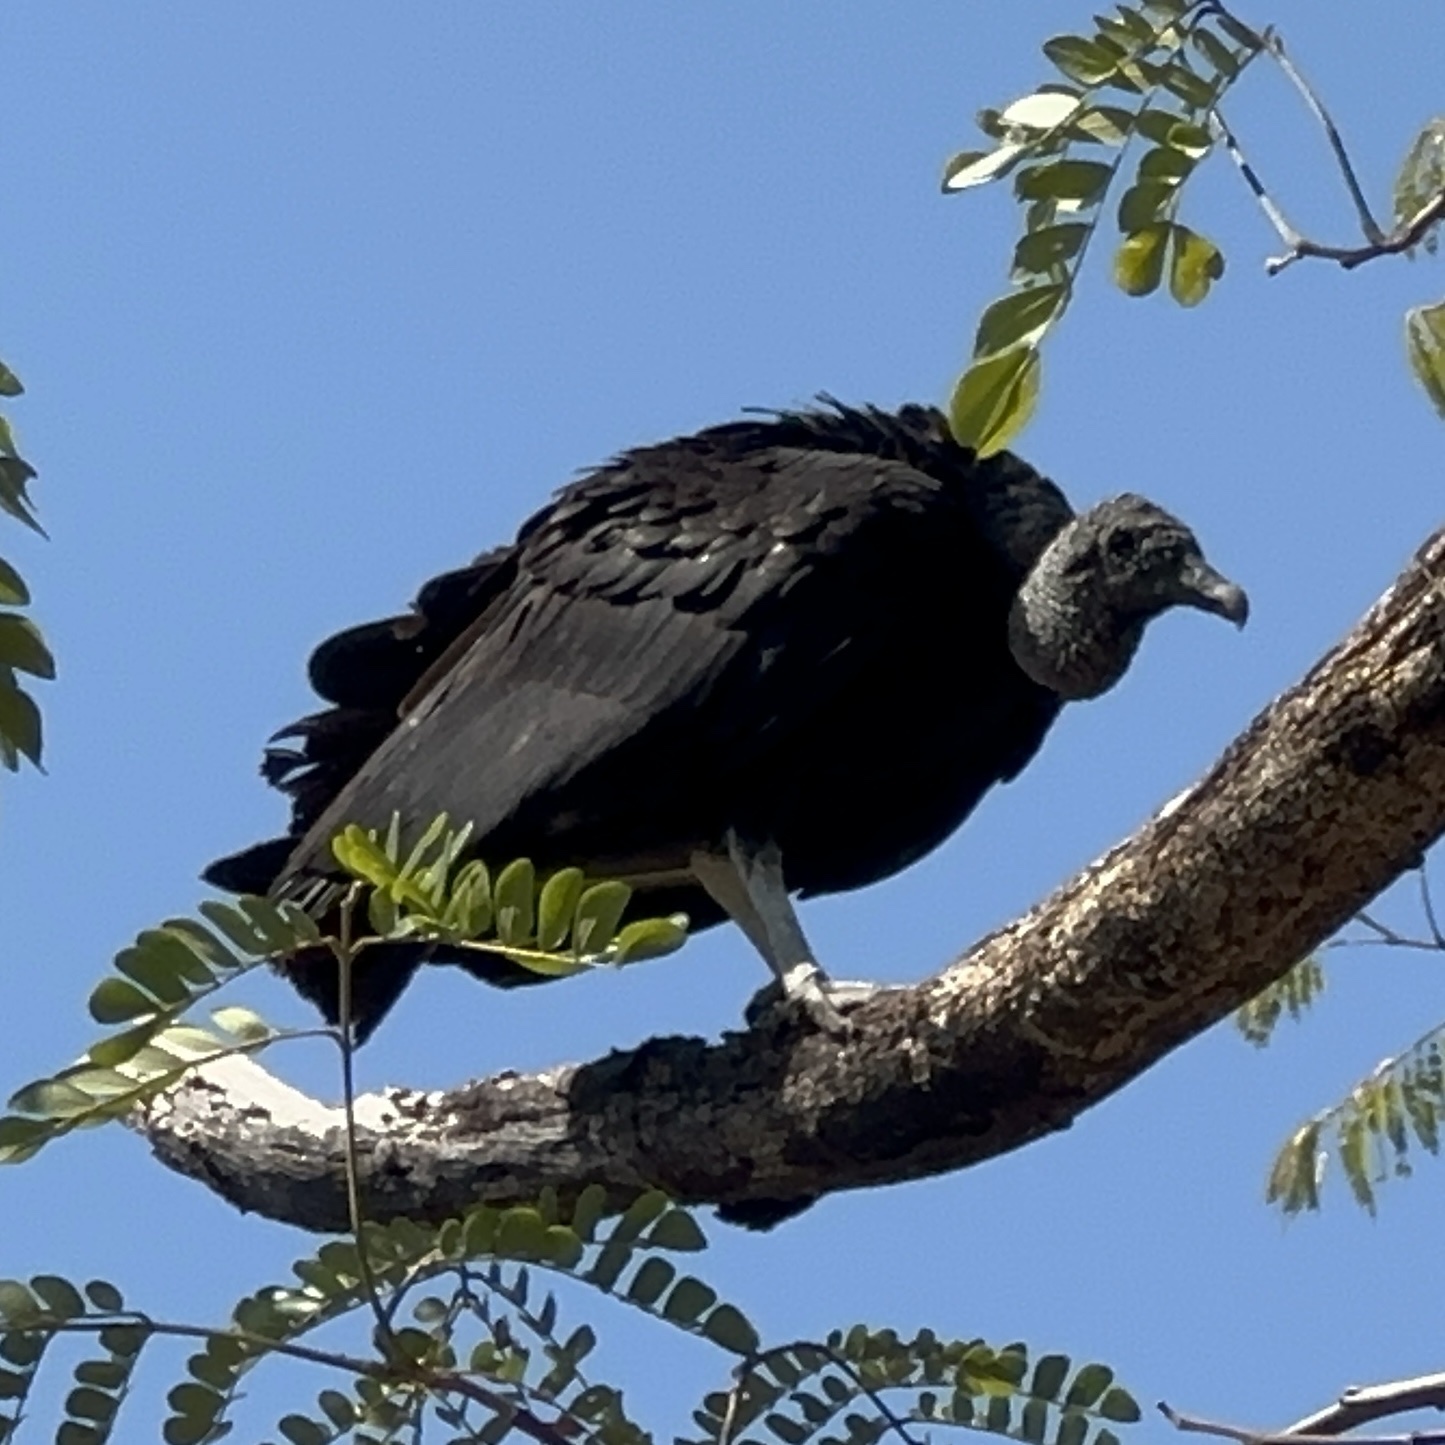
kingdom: Animalia
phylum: Chordata
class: Aves
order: Accipitriformes
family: Cathartidae
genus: Coragyps
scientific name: Coragyps atratus
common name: Black vulture
